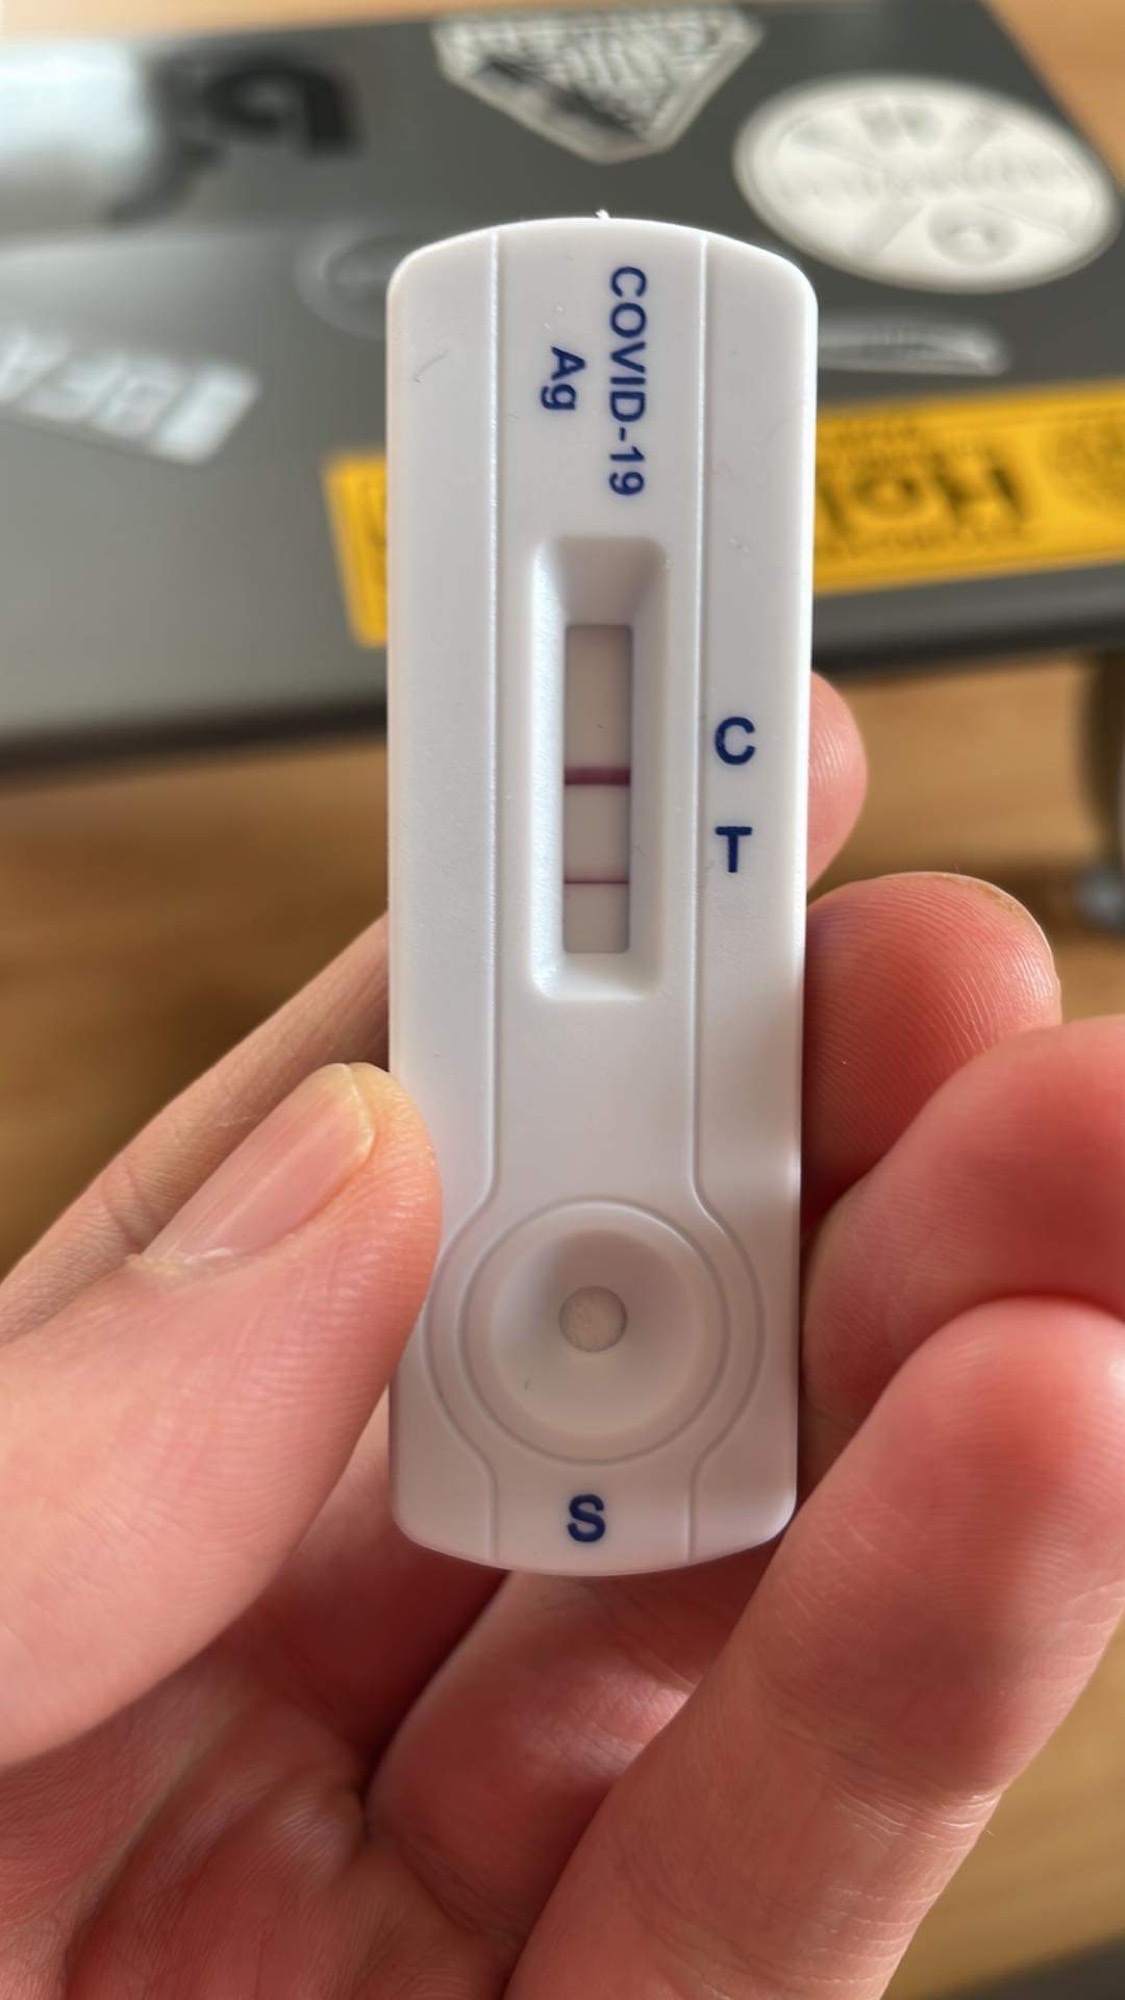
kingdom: Viruses
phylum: Pisuviricota
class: Pisoniviricetes
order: Nidovirales
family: Coronaviridae
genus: Betacoronavirus
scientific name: Betacoronavirus
